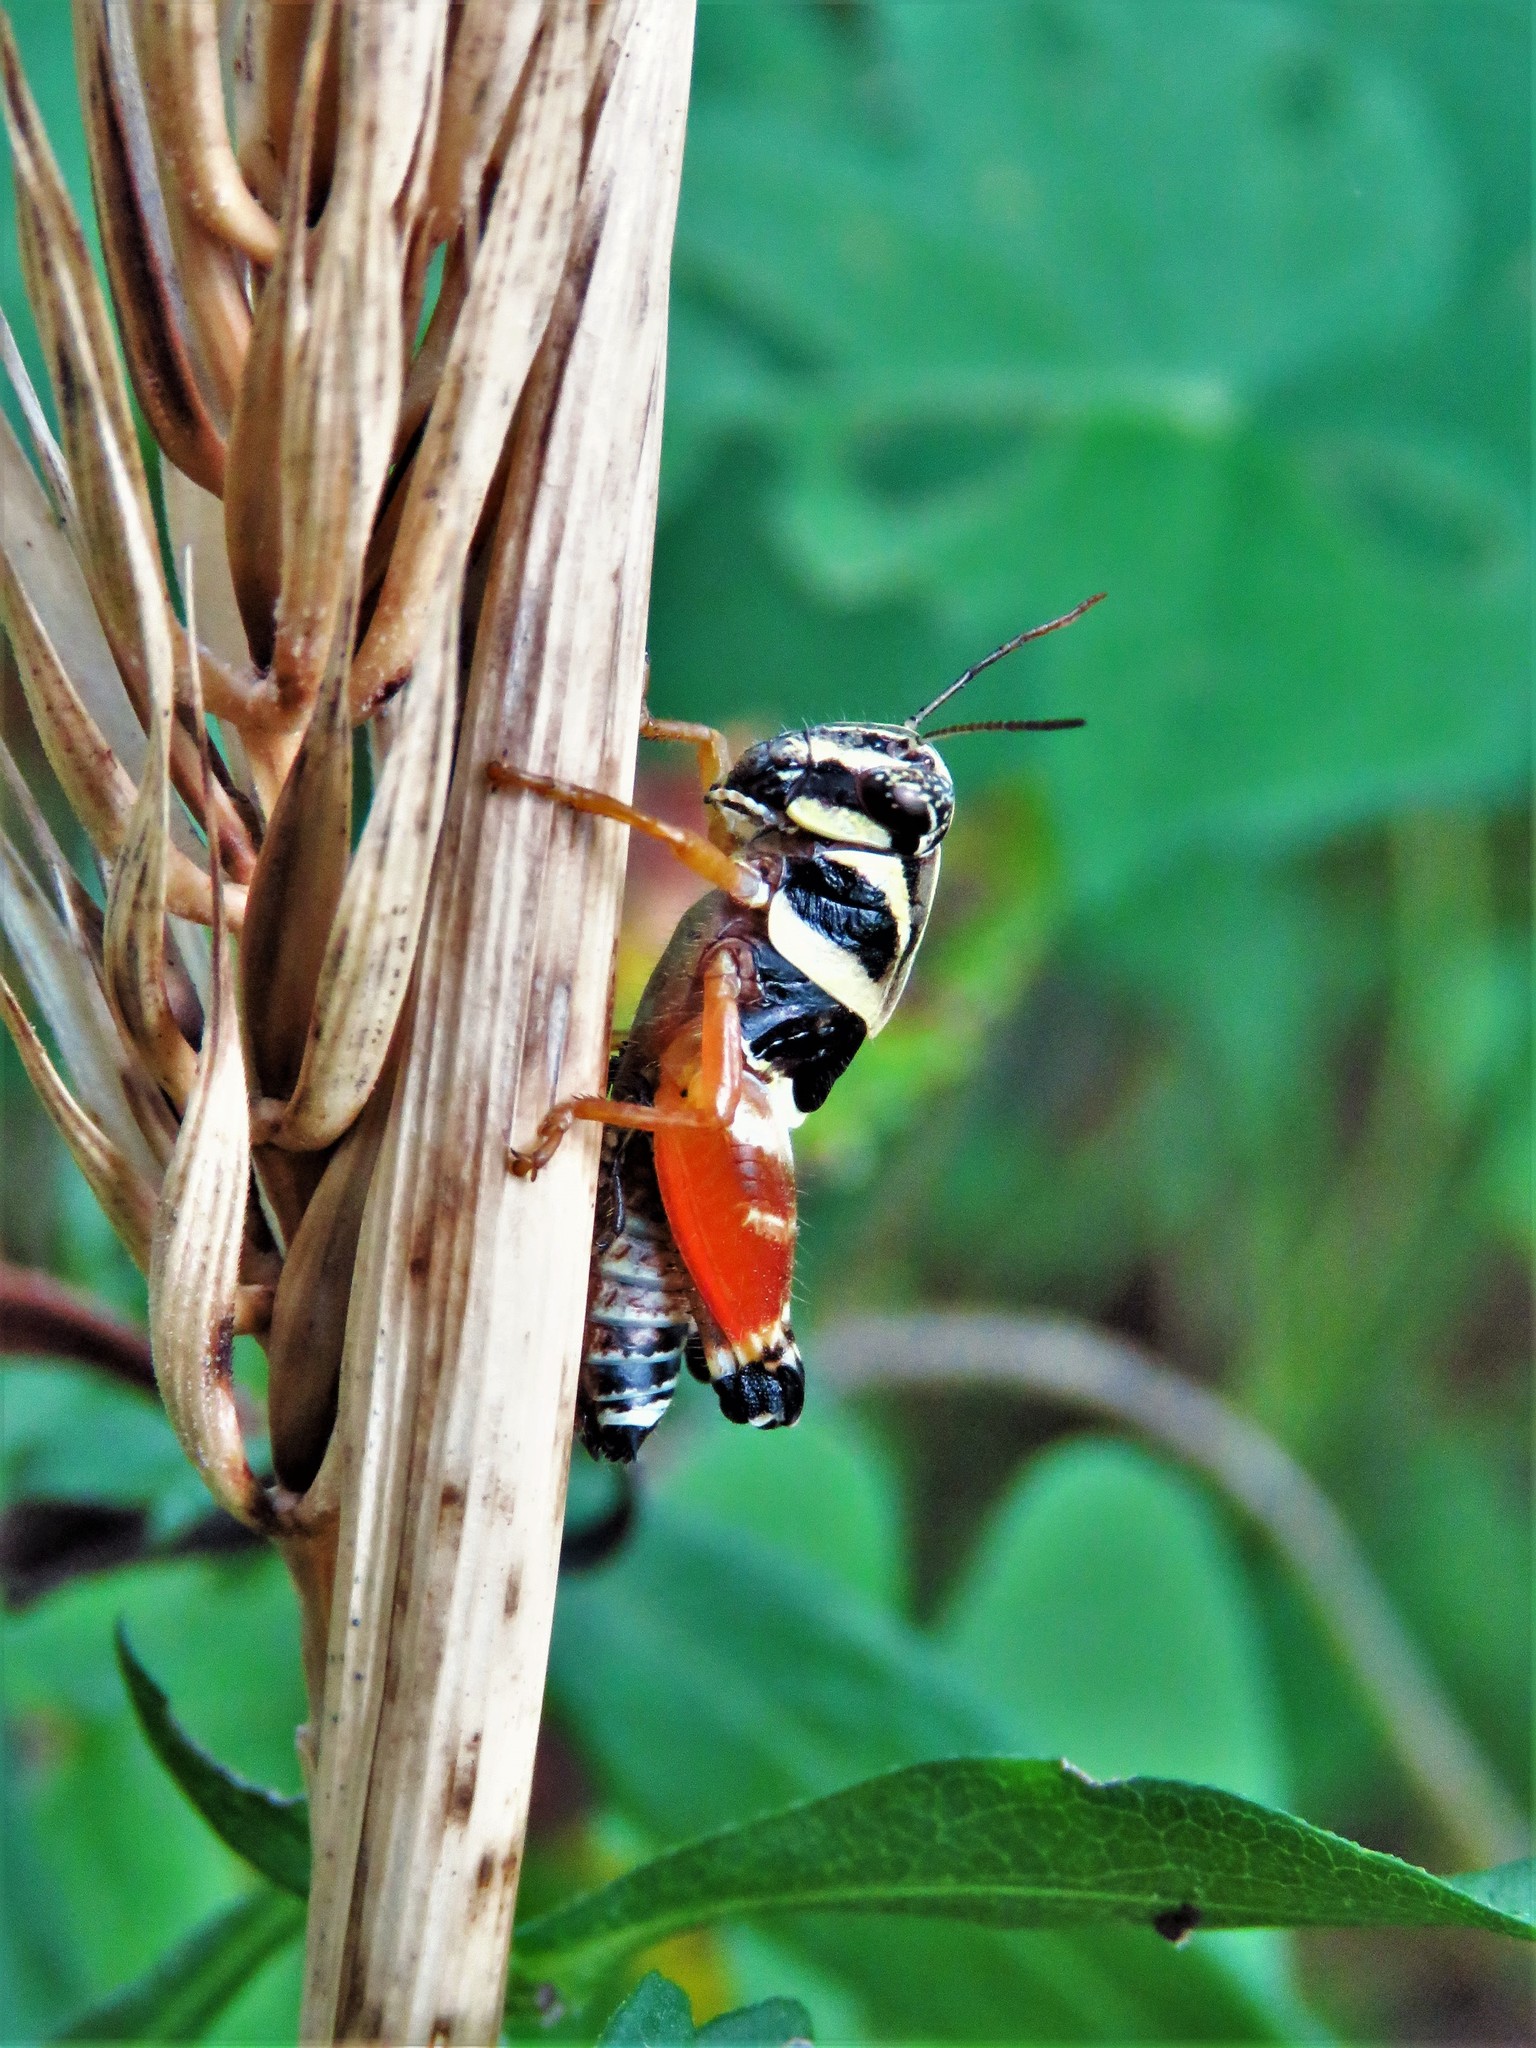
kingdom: Animalia
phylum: Arthropoda
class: Insecta
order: Orthoptera
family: Acrididae
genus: Aidemona
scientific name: Aidemona azteca
